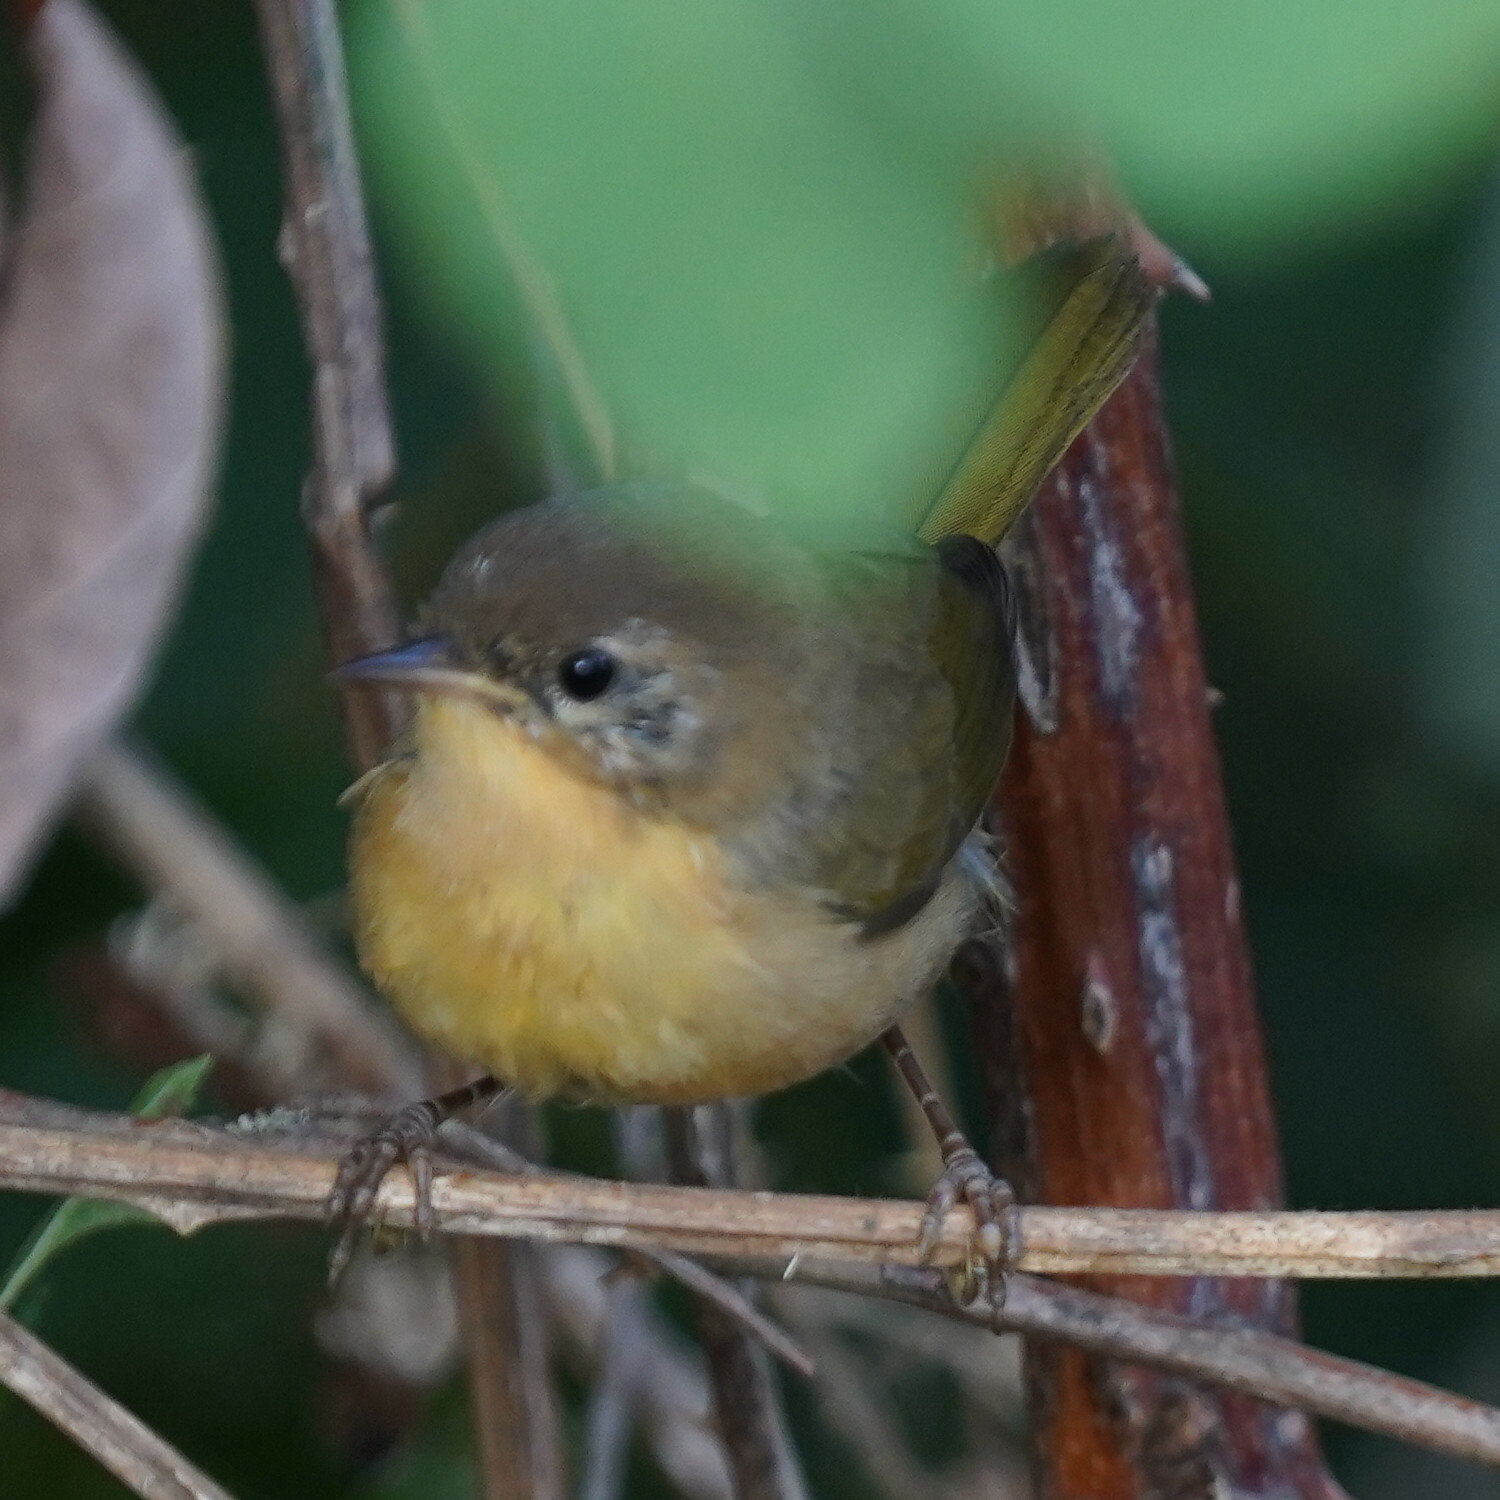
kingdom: Animalia
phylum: Chordata
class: Aves
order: Passeriformes
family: Parulidae
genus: Geothlypis
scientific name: Geothlypis trichas
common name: Common yellowthroat
